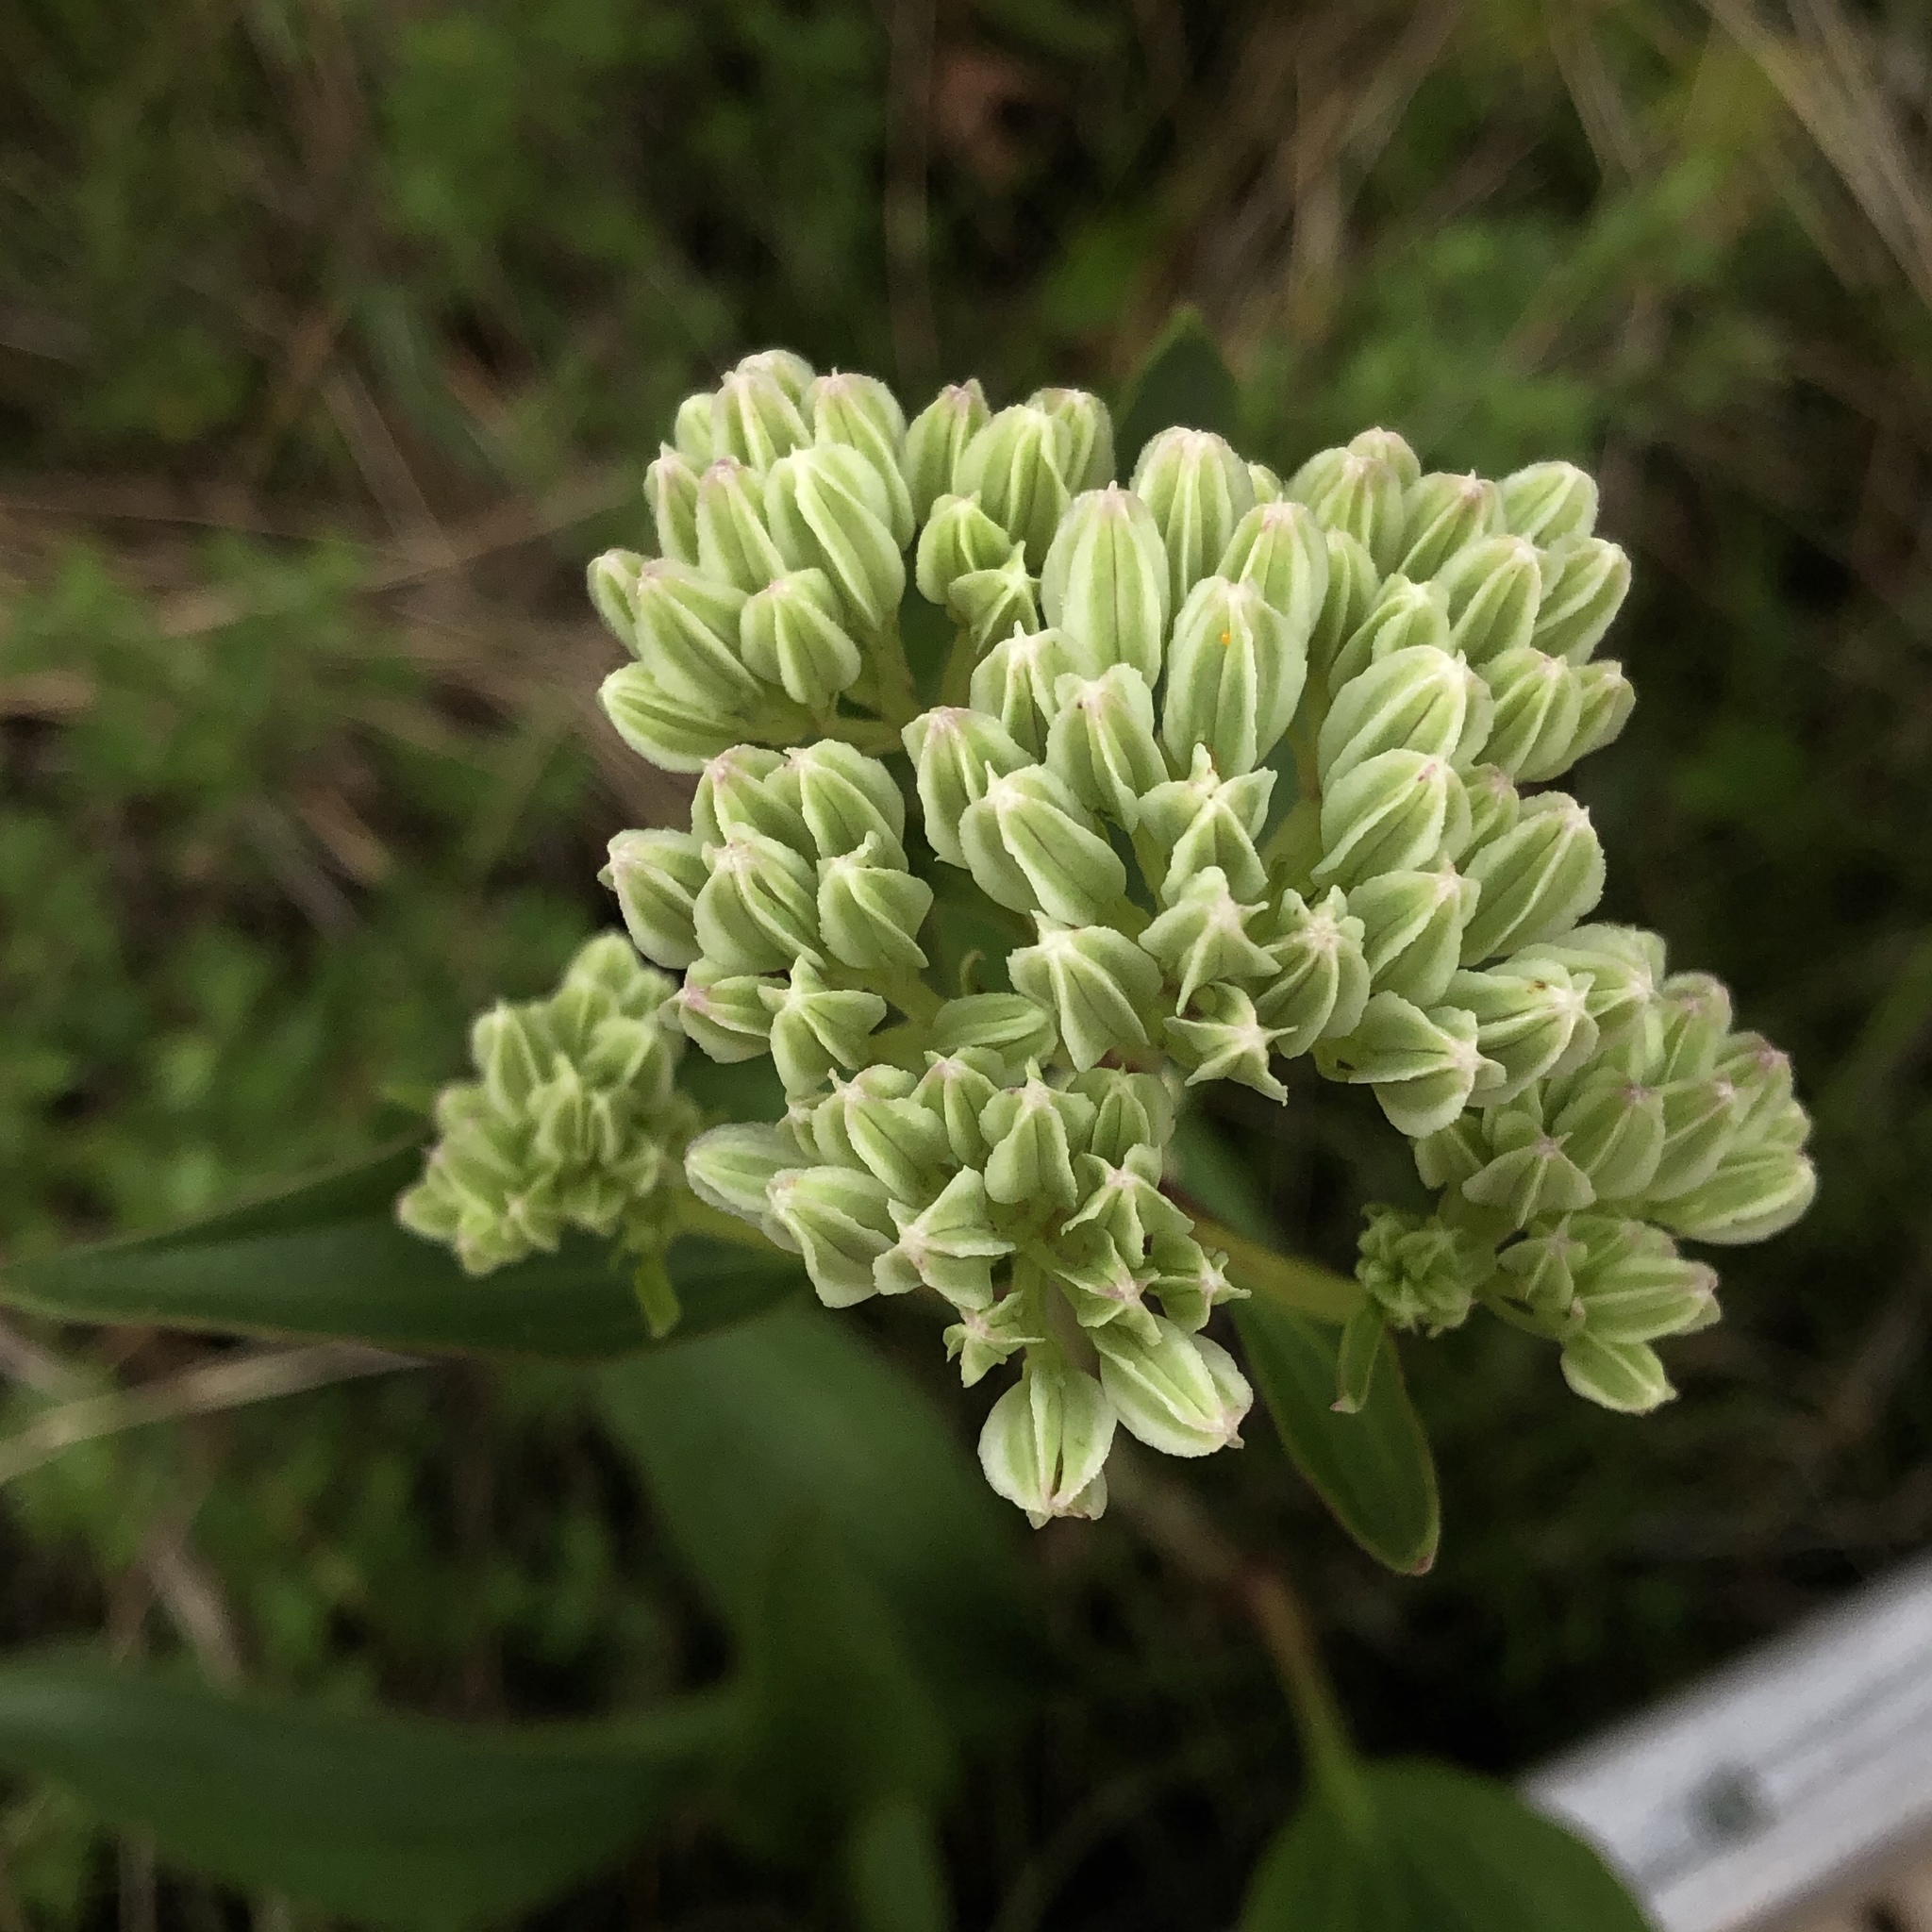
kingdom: Plantae
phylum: Tracheophyta
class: Magnoliopsida
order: Asterales
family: Asteraceae
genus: Arnoglossum
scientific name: Arnoglossum plantagineum
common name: Groove-stemmed indian-plantain
